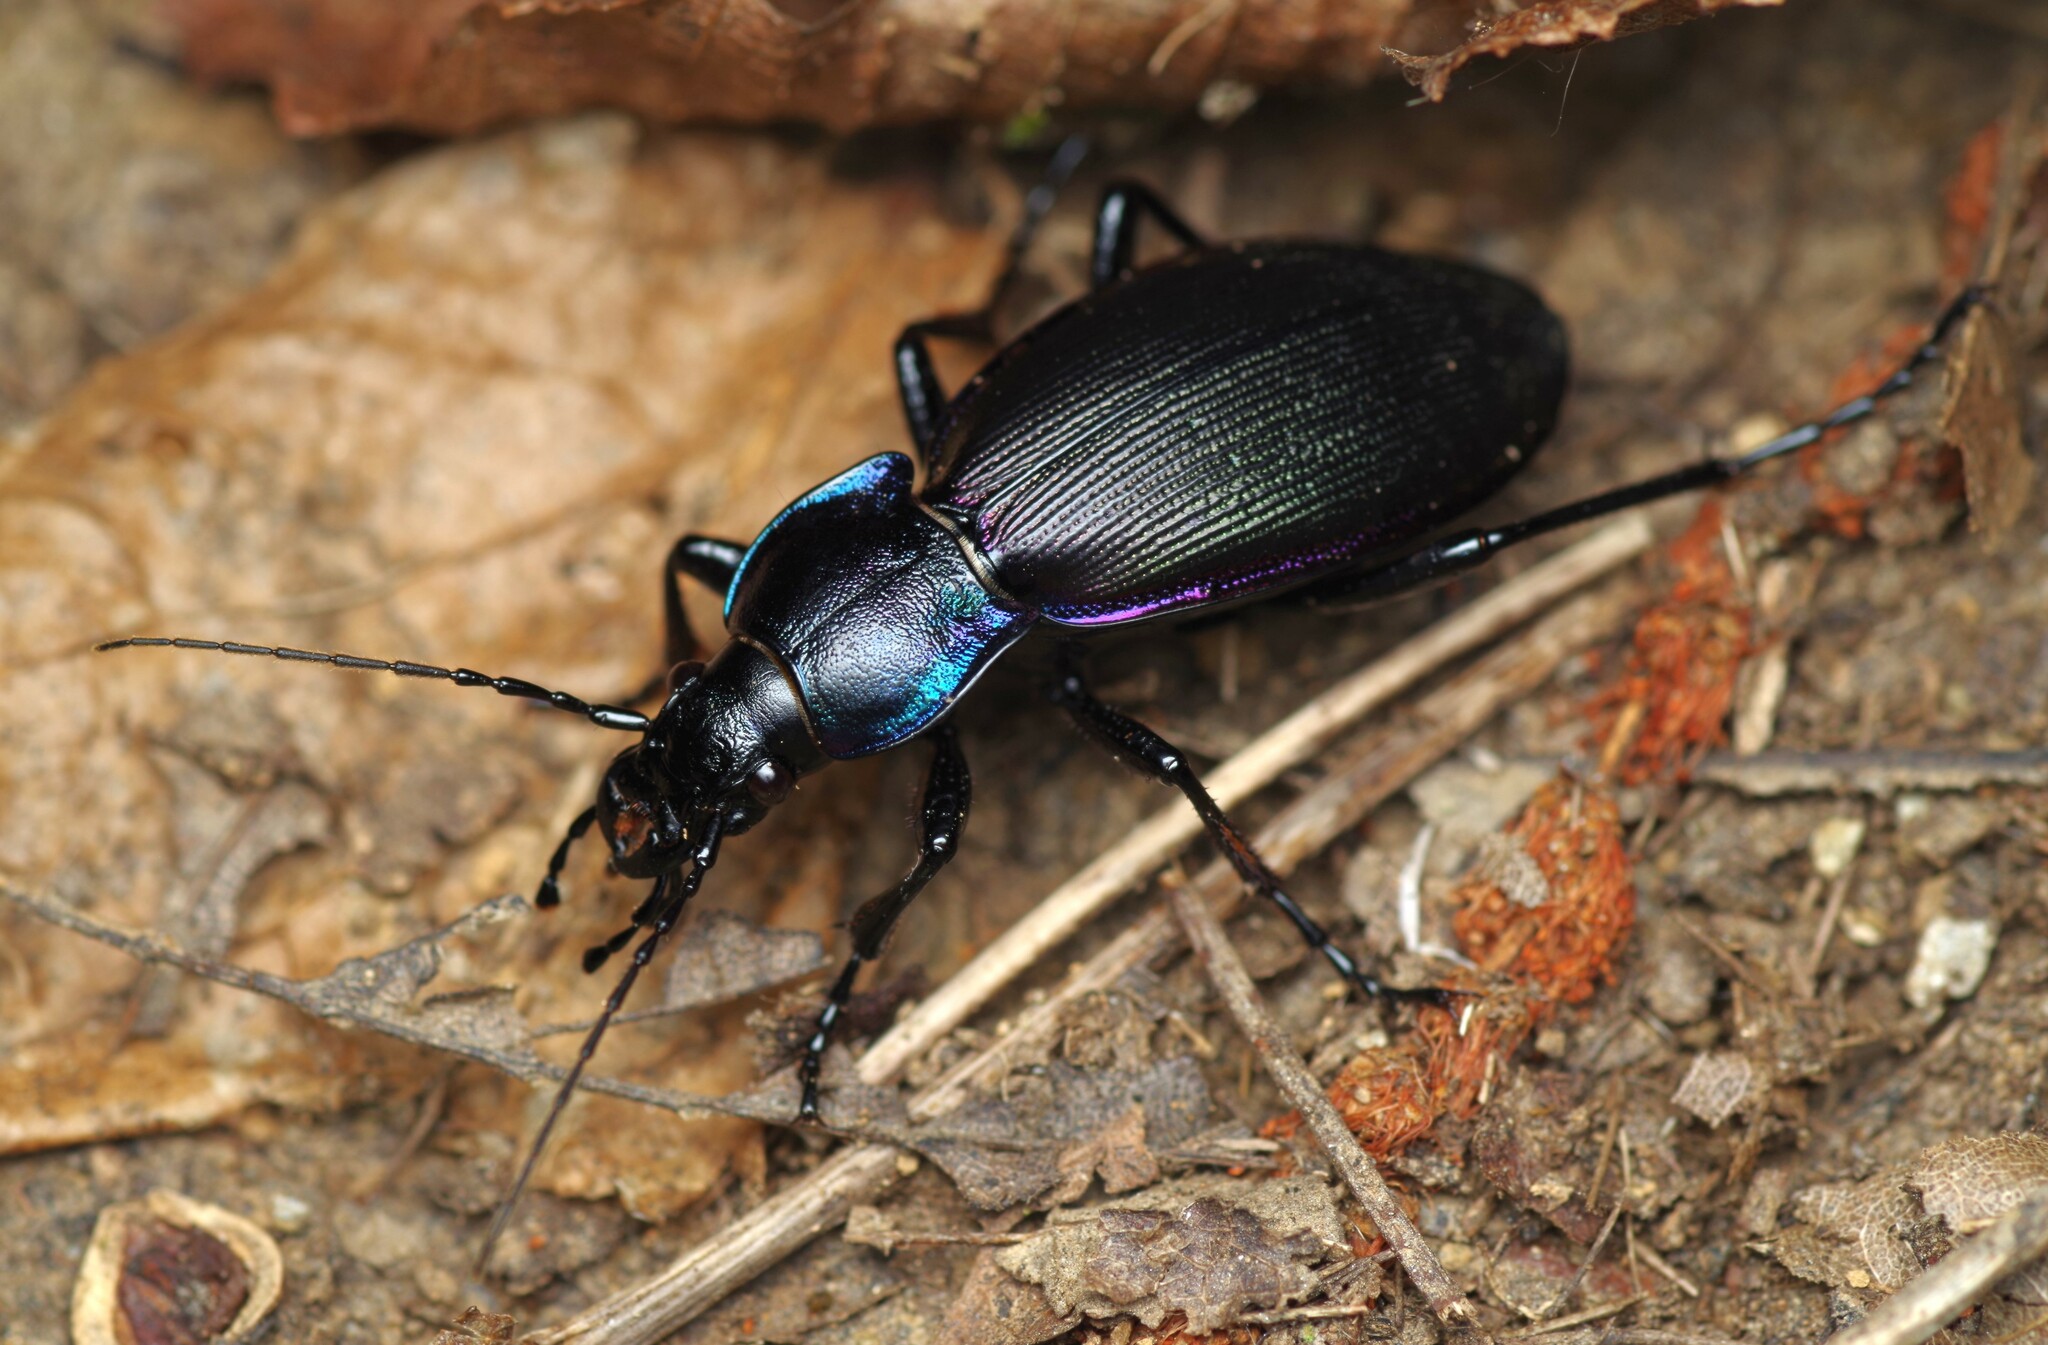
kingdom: Animalia
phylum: Arthropoda
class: Insecta
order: Coleoptera
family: Carabidae
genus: Carabus
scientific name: Carabus purpurascens
